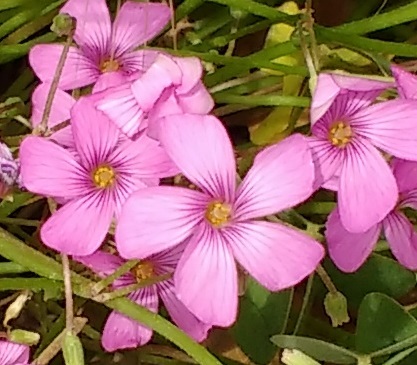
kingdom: Plantae
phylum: Tracheophyta
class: Magnoliopsida
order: Oxalidales
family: Oxalidaceae
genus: Oxalis
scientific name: Oxalis articulata
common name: Pink-sorrel
